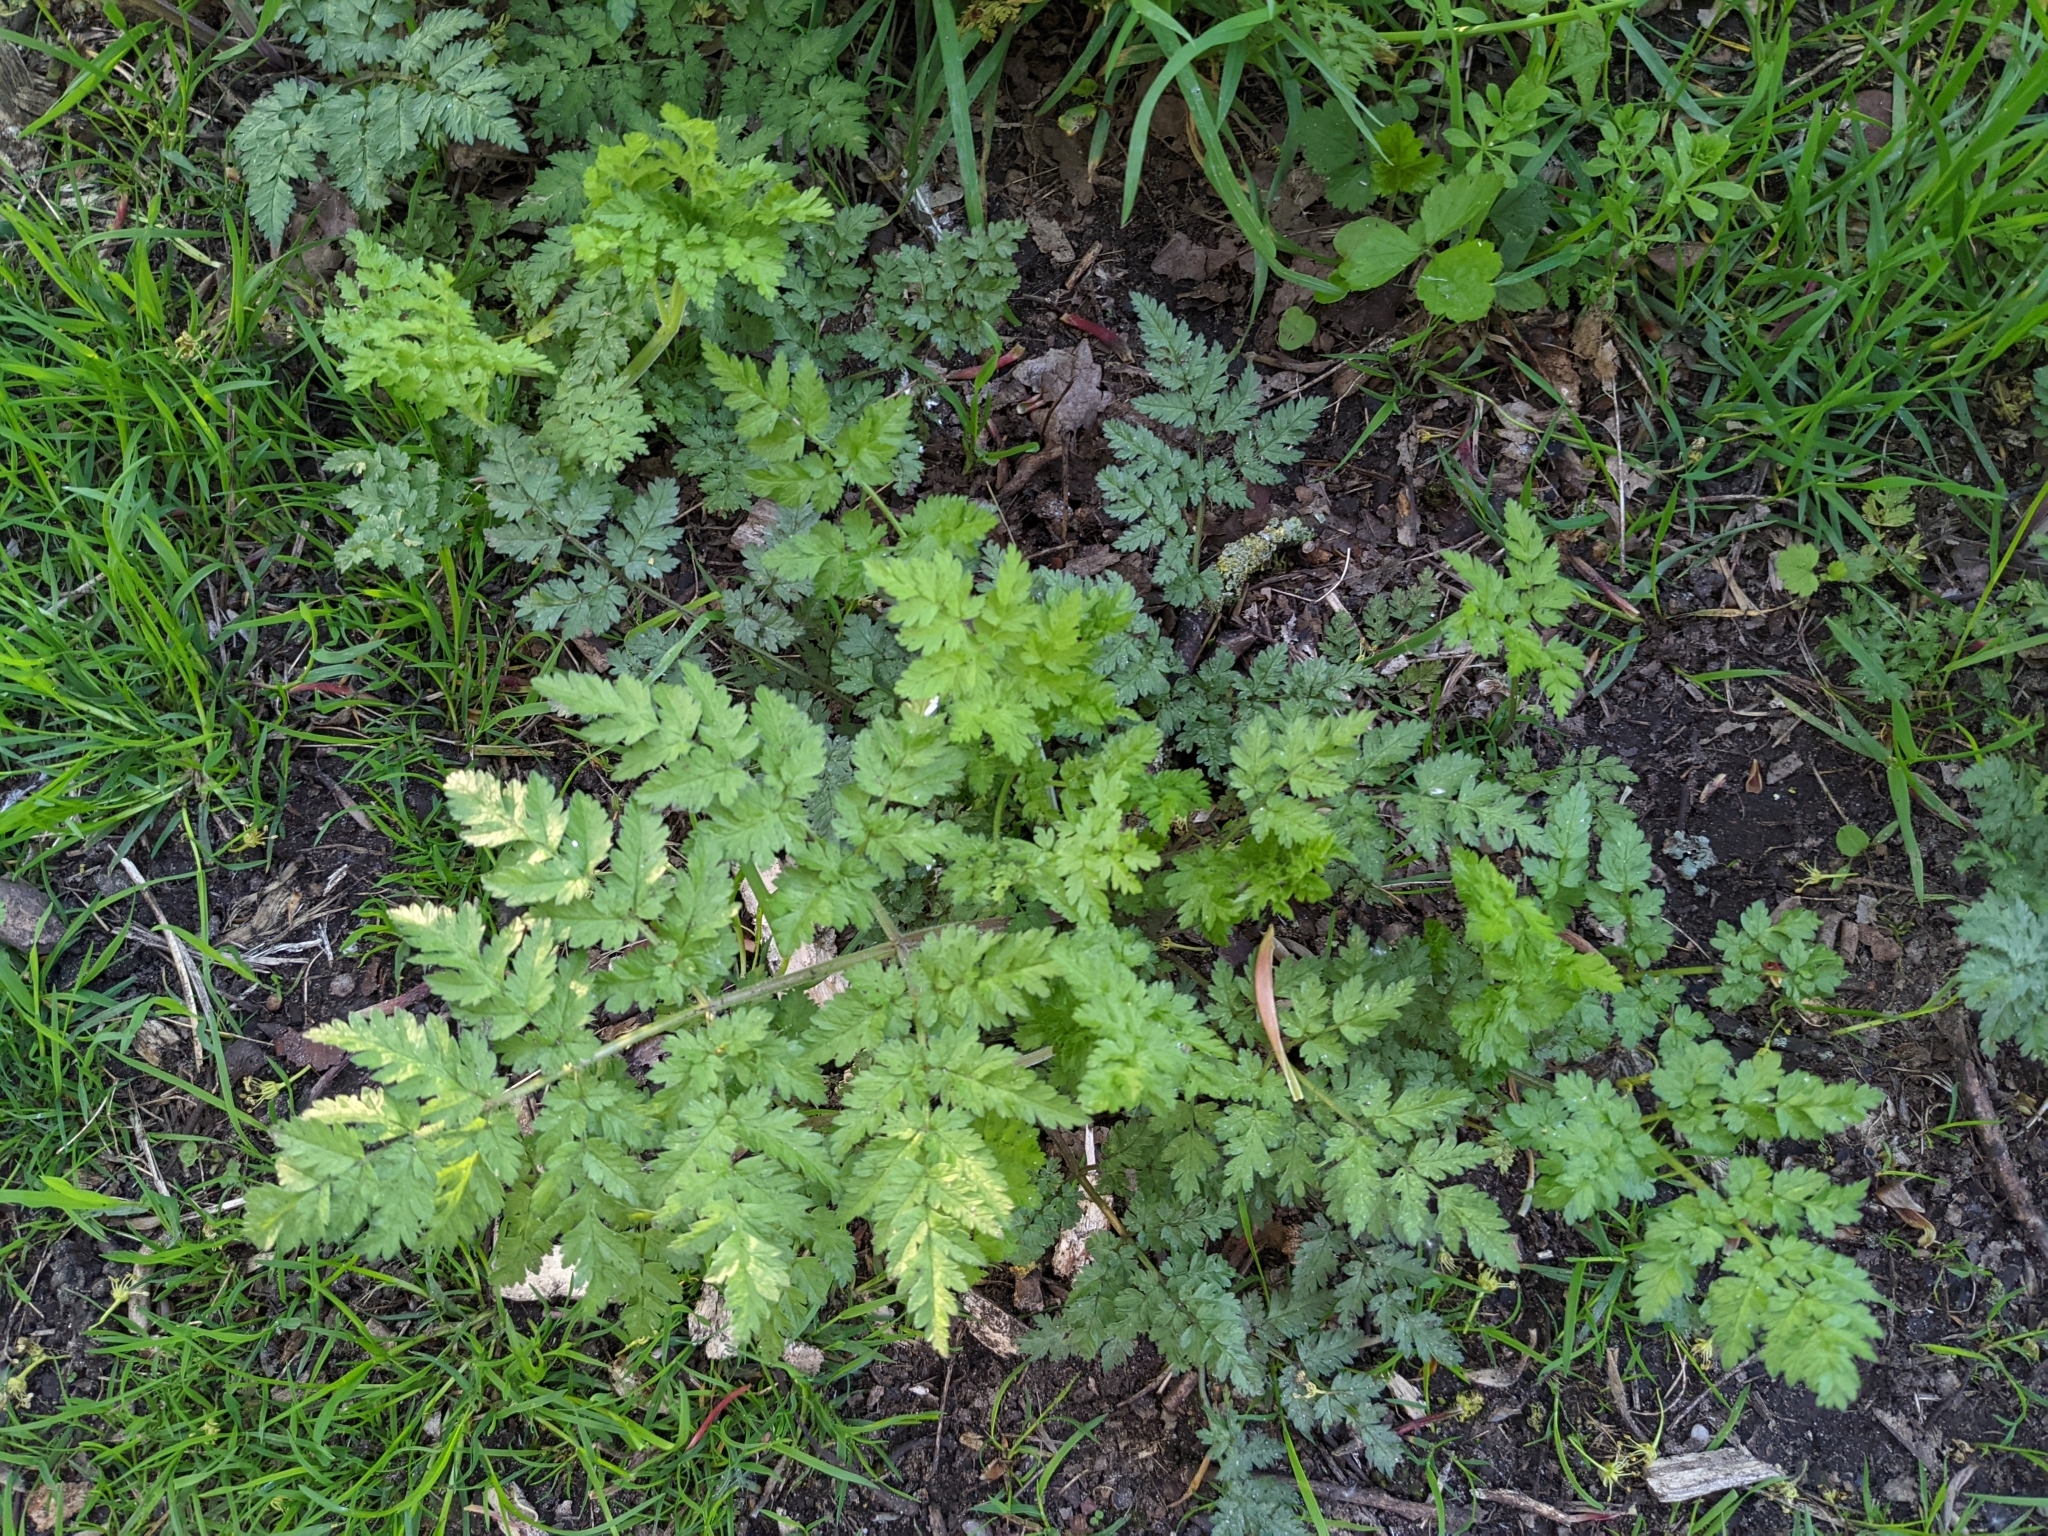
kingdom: Plantae
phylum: Tracheophyta
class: Magnoliopsida
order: Apiales
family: Apiaceae
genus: Anthriscus
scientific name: Anthriscus sylvestris
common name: Cow parsley
